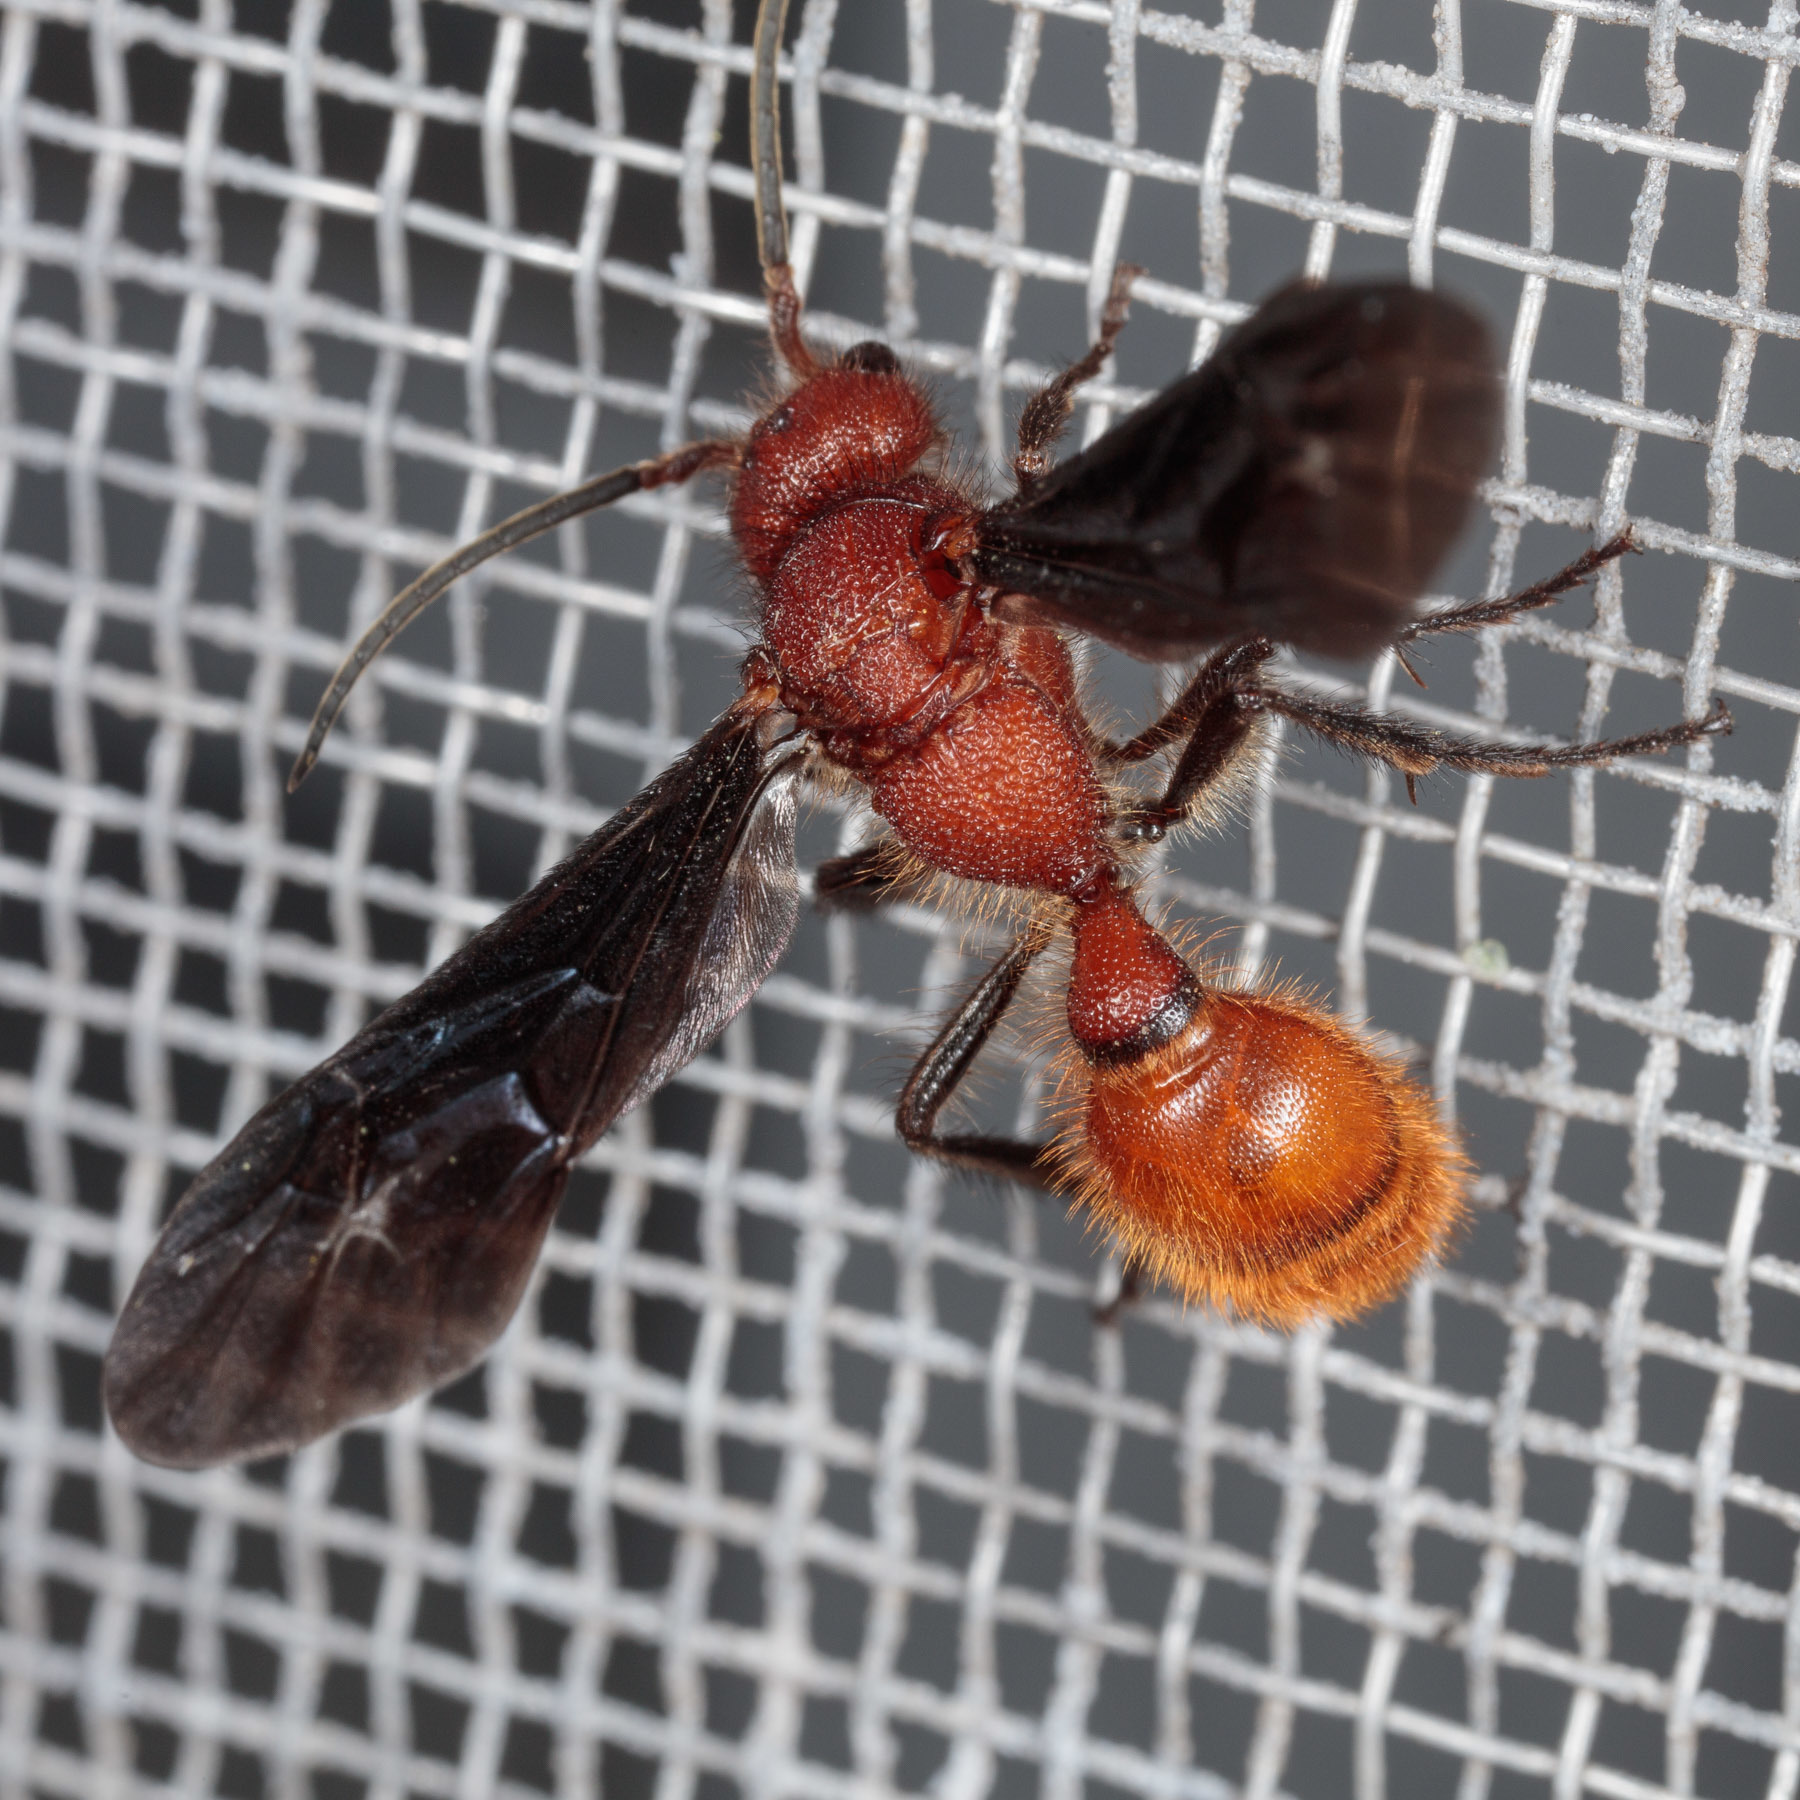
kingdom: Animalia
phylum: Arthropoda
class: Insecta
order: Hymenoptera
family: Mutillidae
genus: Sphaeropthalma
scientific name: Sphaeropthalma
